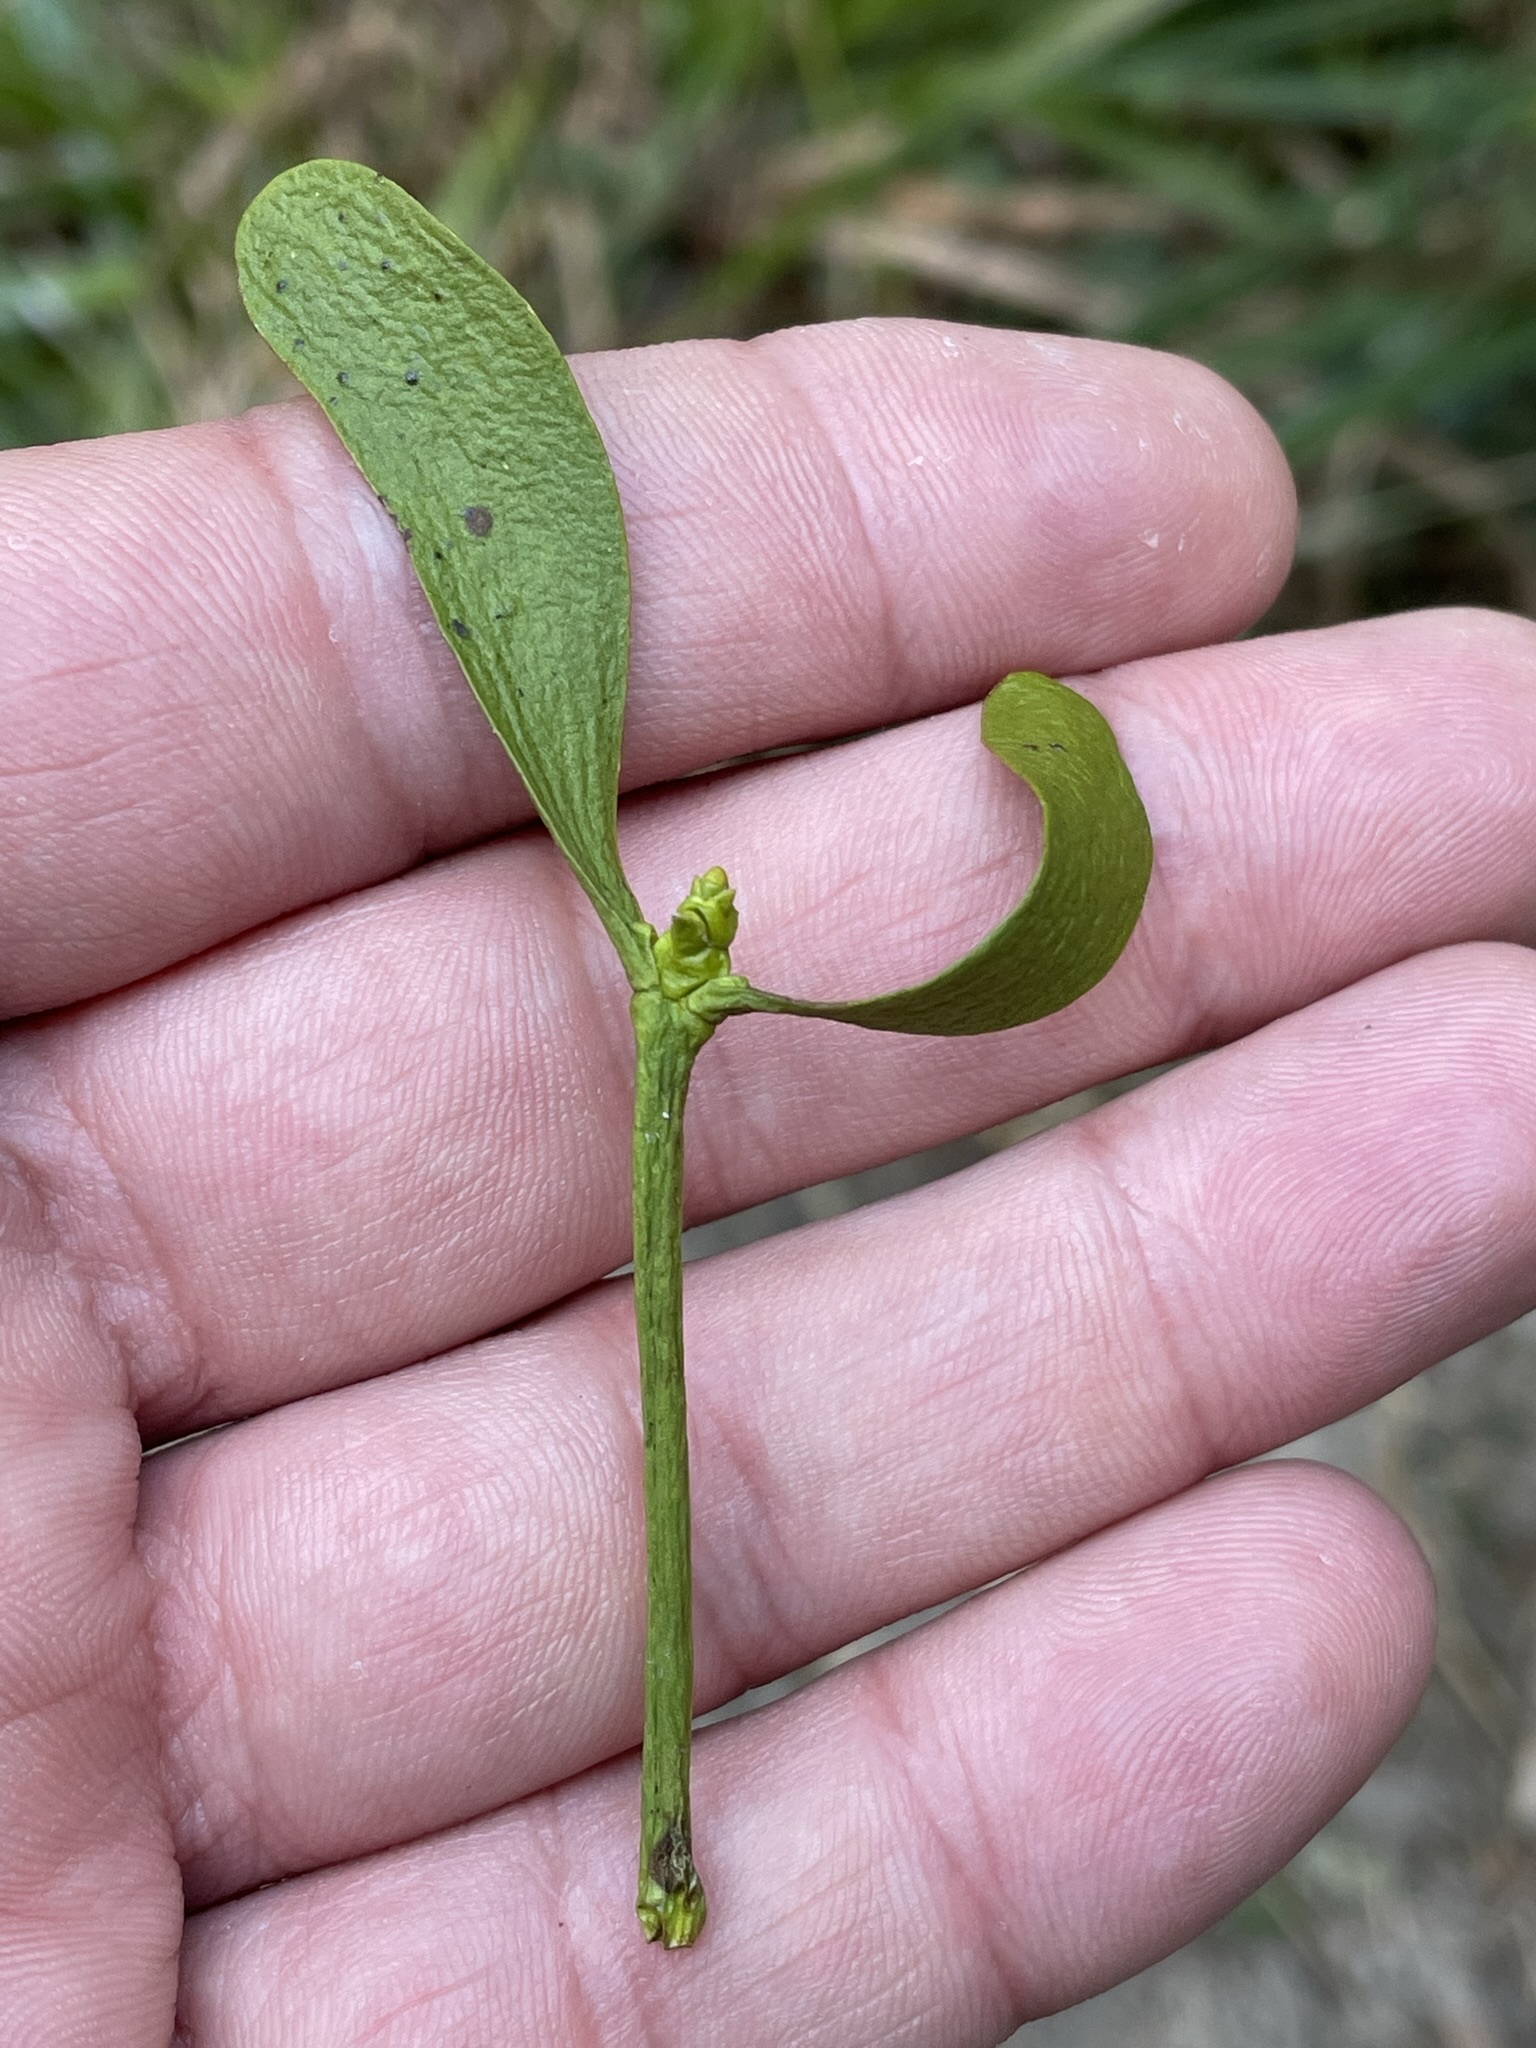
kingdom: Plantae
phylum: Tracheophyta
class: Magnoliopsida
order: Santalales
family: Viscaceae
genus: Viscum
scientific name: Viscum album
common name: Mistletoe
